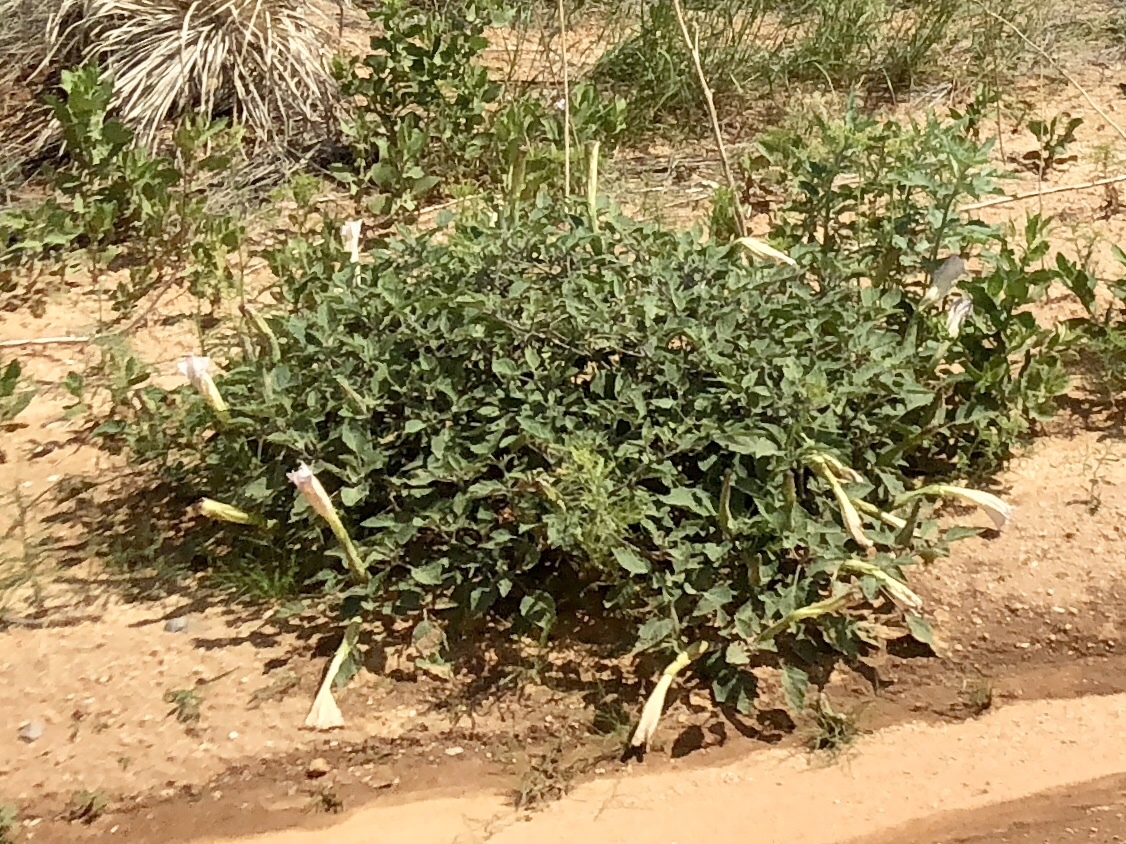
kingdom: Plantae
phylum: Tracheophyta
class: Magnoliopsida
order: Solanales
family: Solanaceae
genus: Datura
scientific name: Datura wrightii
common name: Sacred thorn-apple
